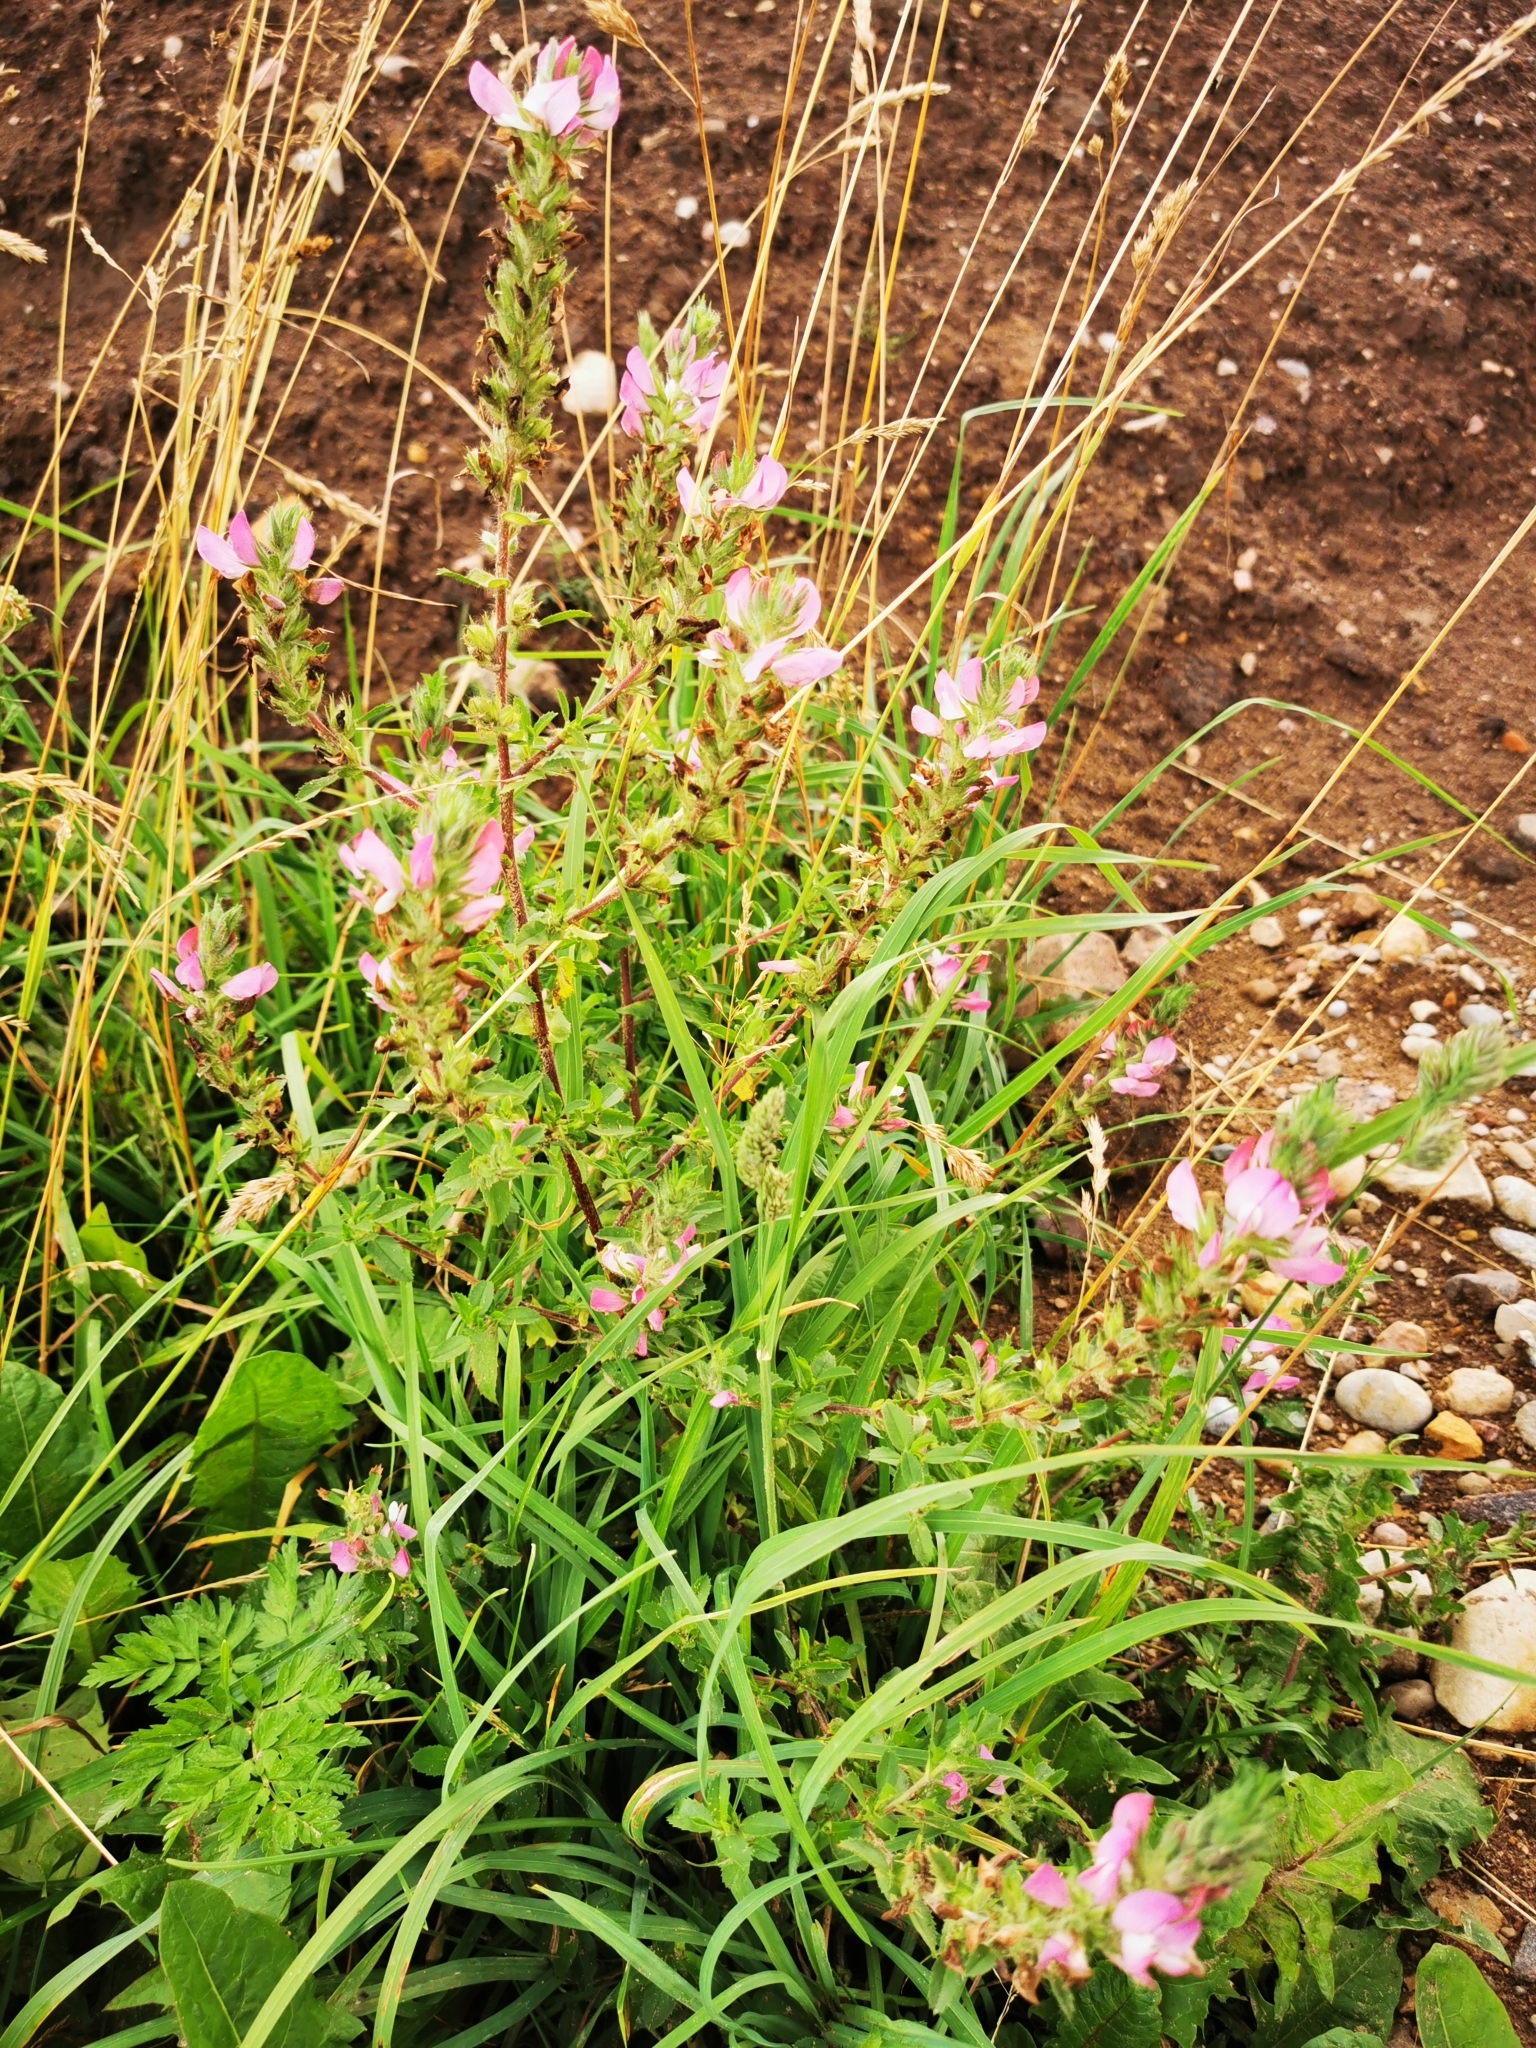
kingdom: Plantae
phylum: Tracheophyta
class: Magnoliopsida
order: Fabales
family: Fabaceae
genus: Ononis
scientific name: Ononis arvensis
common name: Field restharrow
